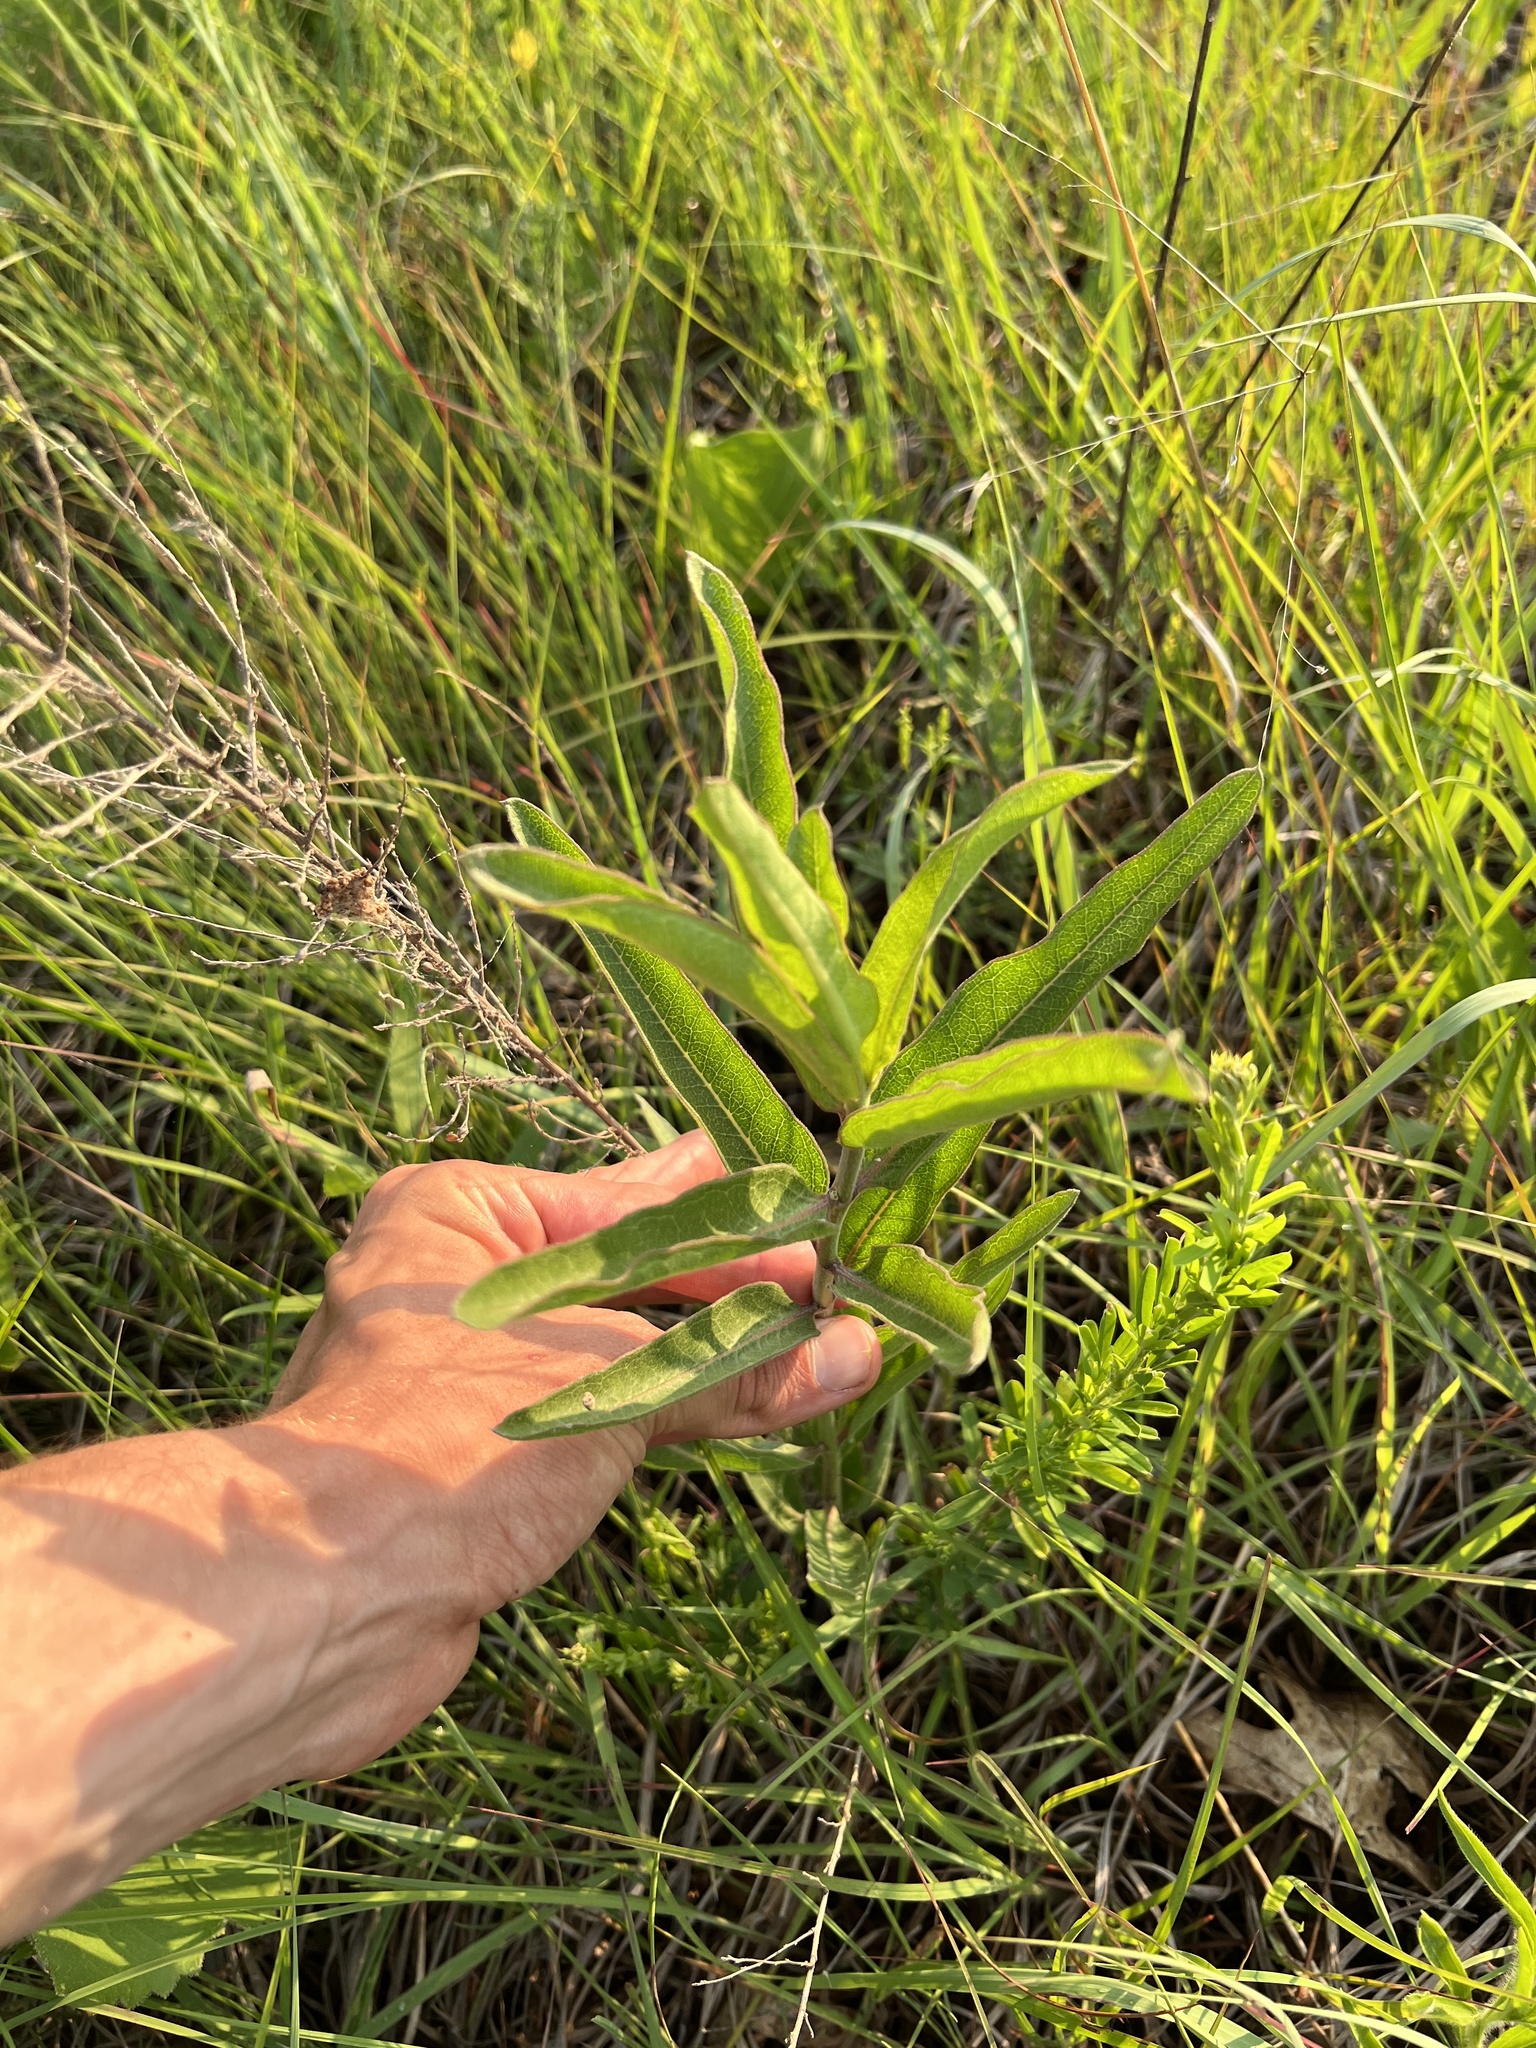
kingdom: Plantae
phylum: Tracheophyta
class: Magnoliopsida
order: Gentianales
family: Apocynaceae
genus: Asclepias
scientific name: Asclepias viridis
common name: Antelope-horns
